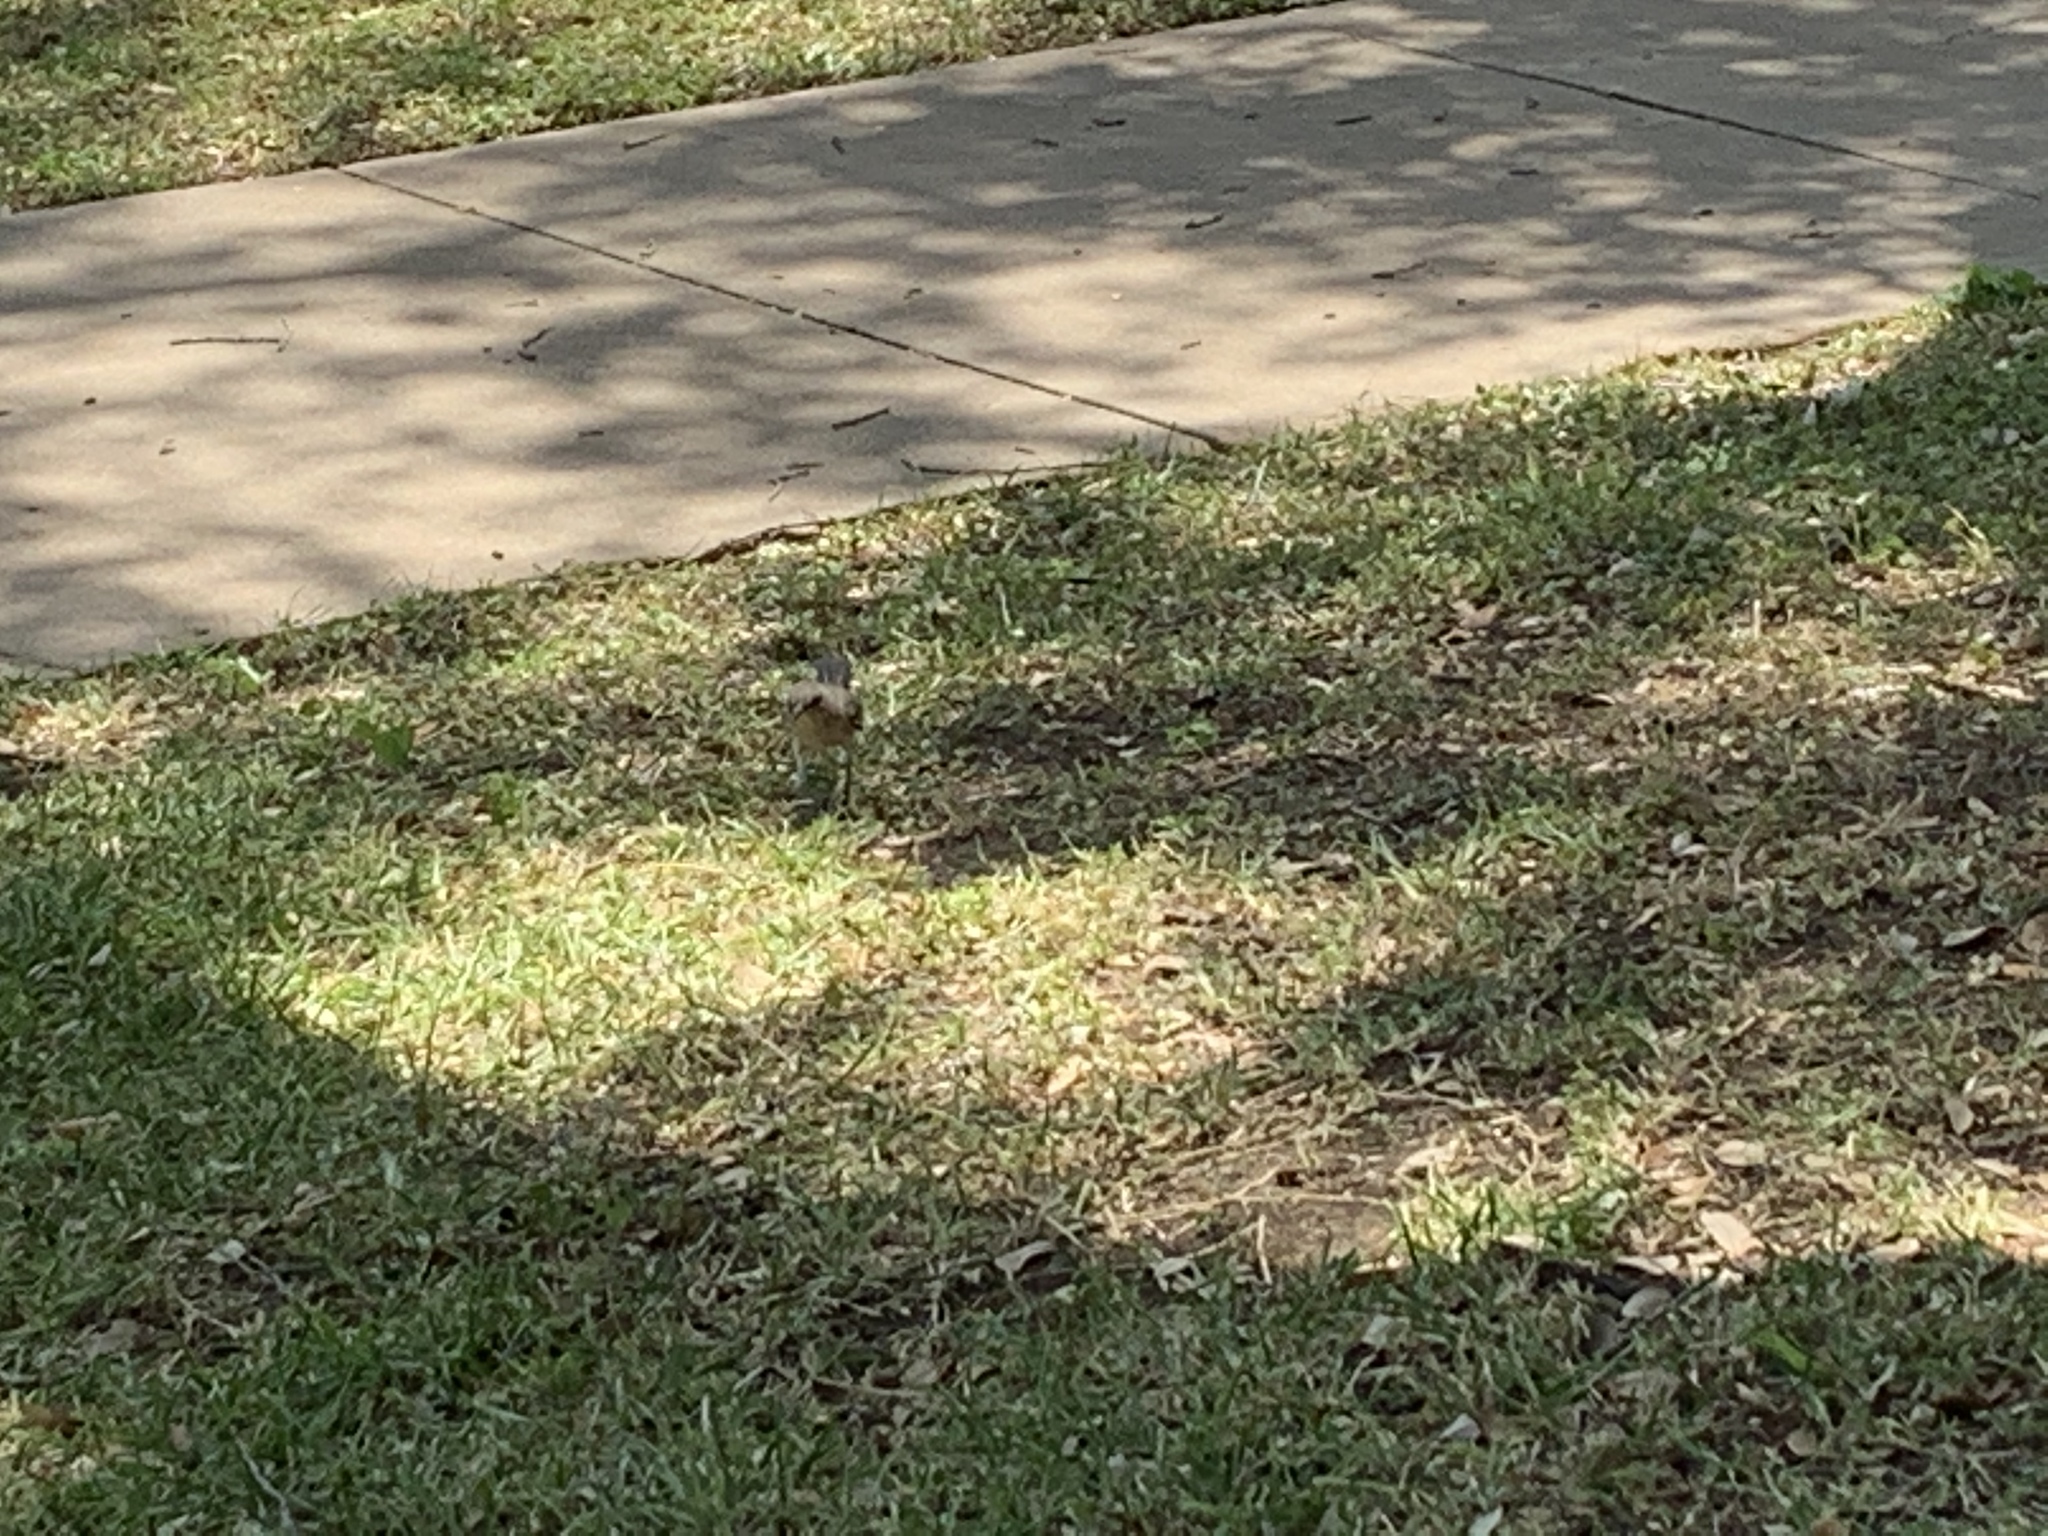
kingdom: Animalia
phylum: Chordata
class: Aves
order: Passeriformes
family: Mimidae
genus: Mimus
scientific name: Mimus polyglottos
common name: Northern mockingbird
